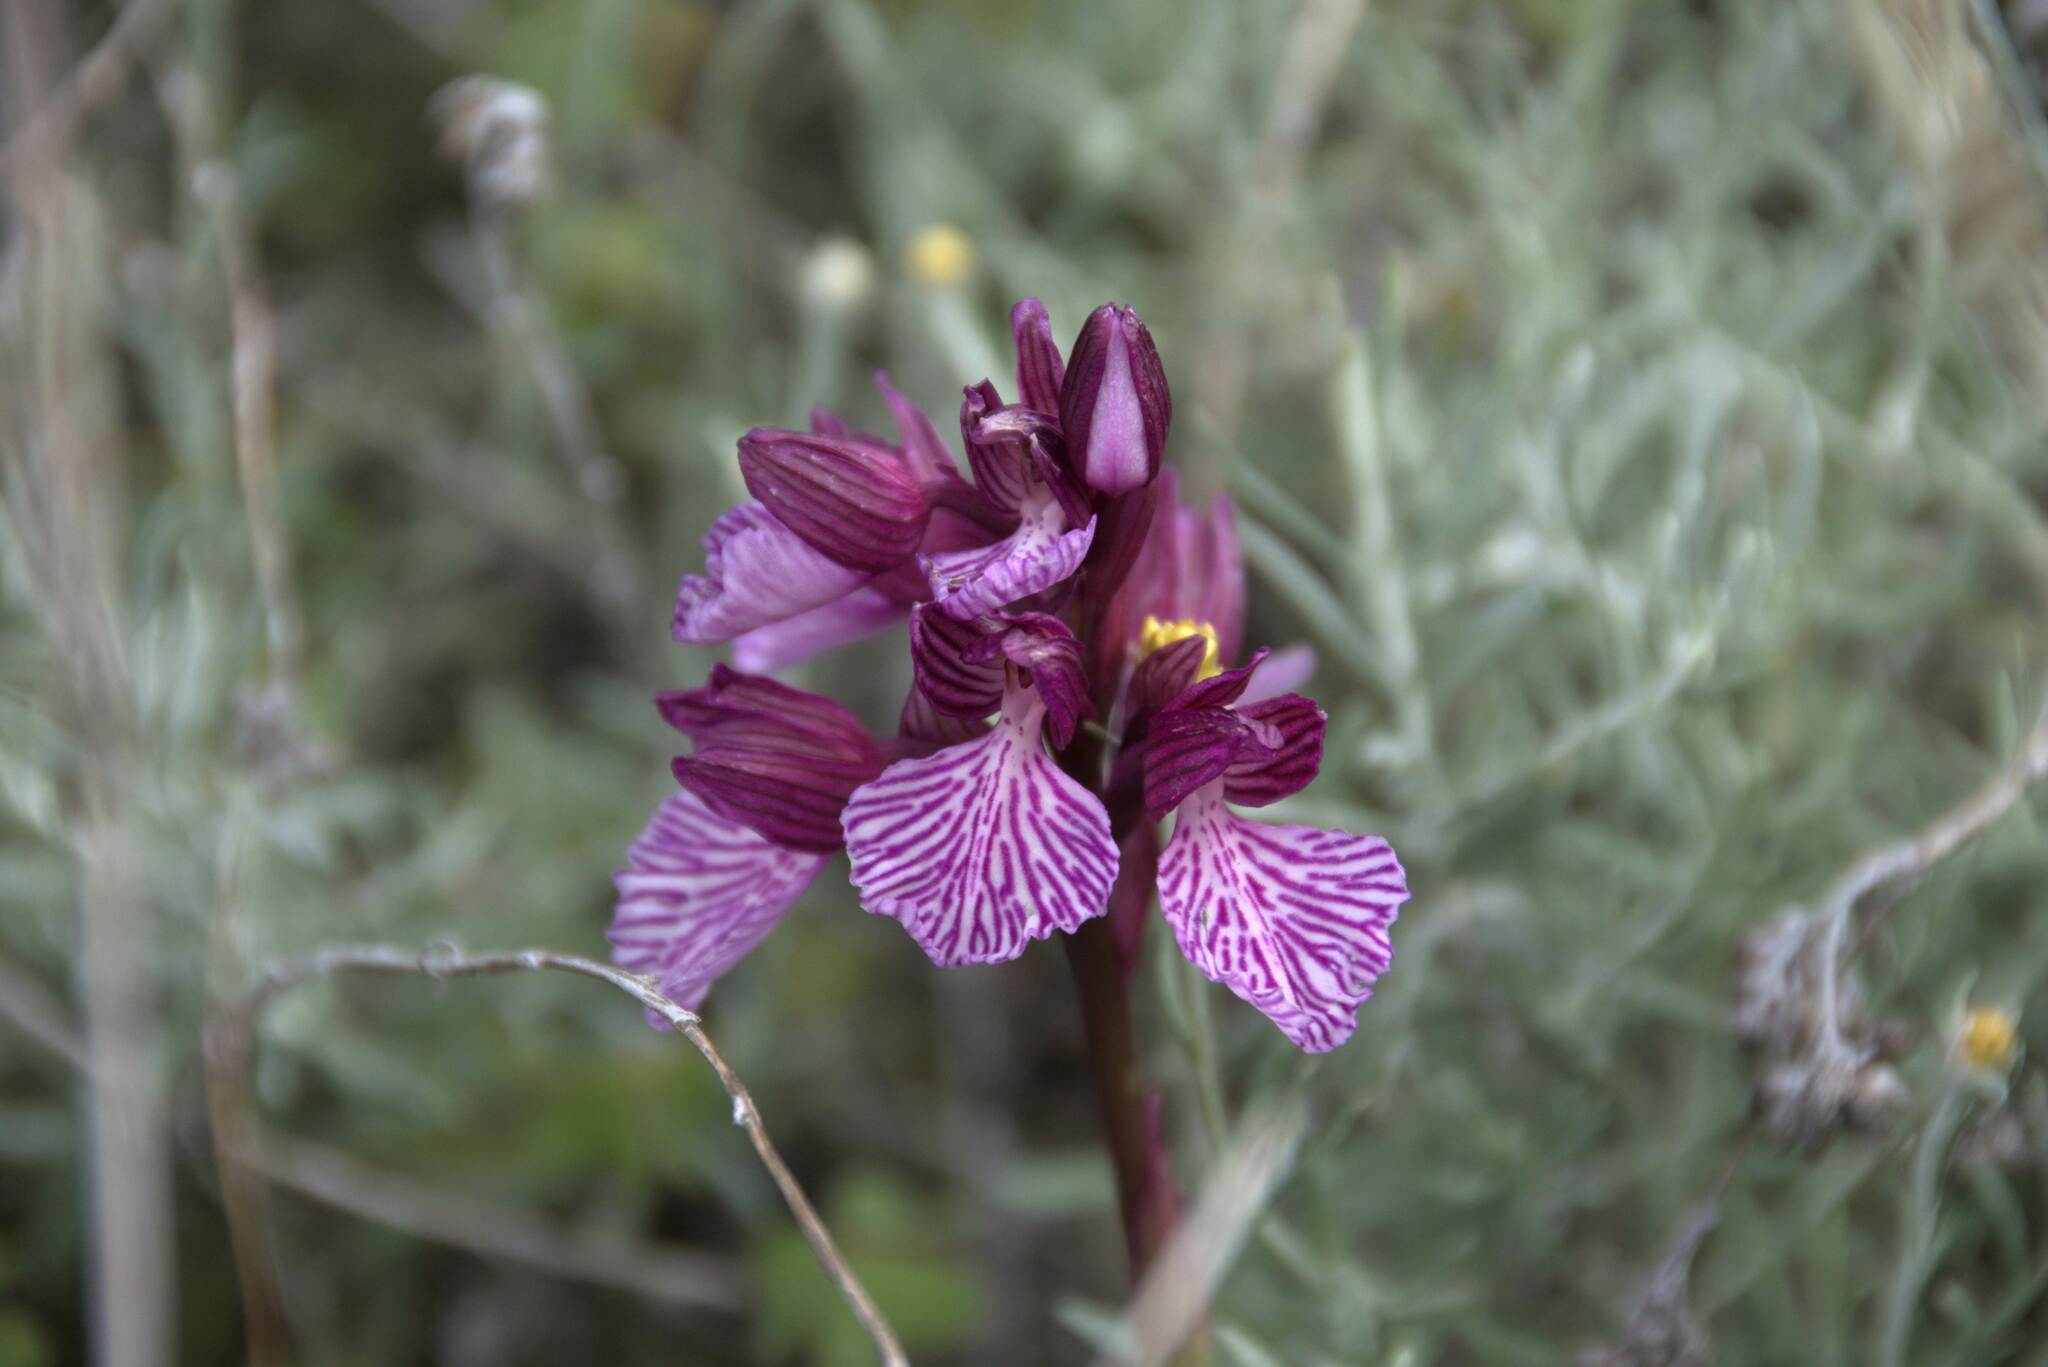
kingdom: Plantae
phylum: Tracheophyta
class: Liliopsida
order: Asparagales
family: Orchidaceae
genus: Anacamptis
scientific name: Anacamptis papilionacea
